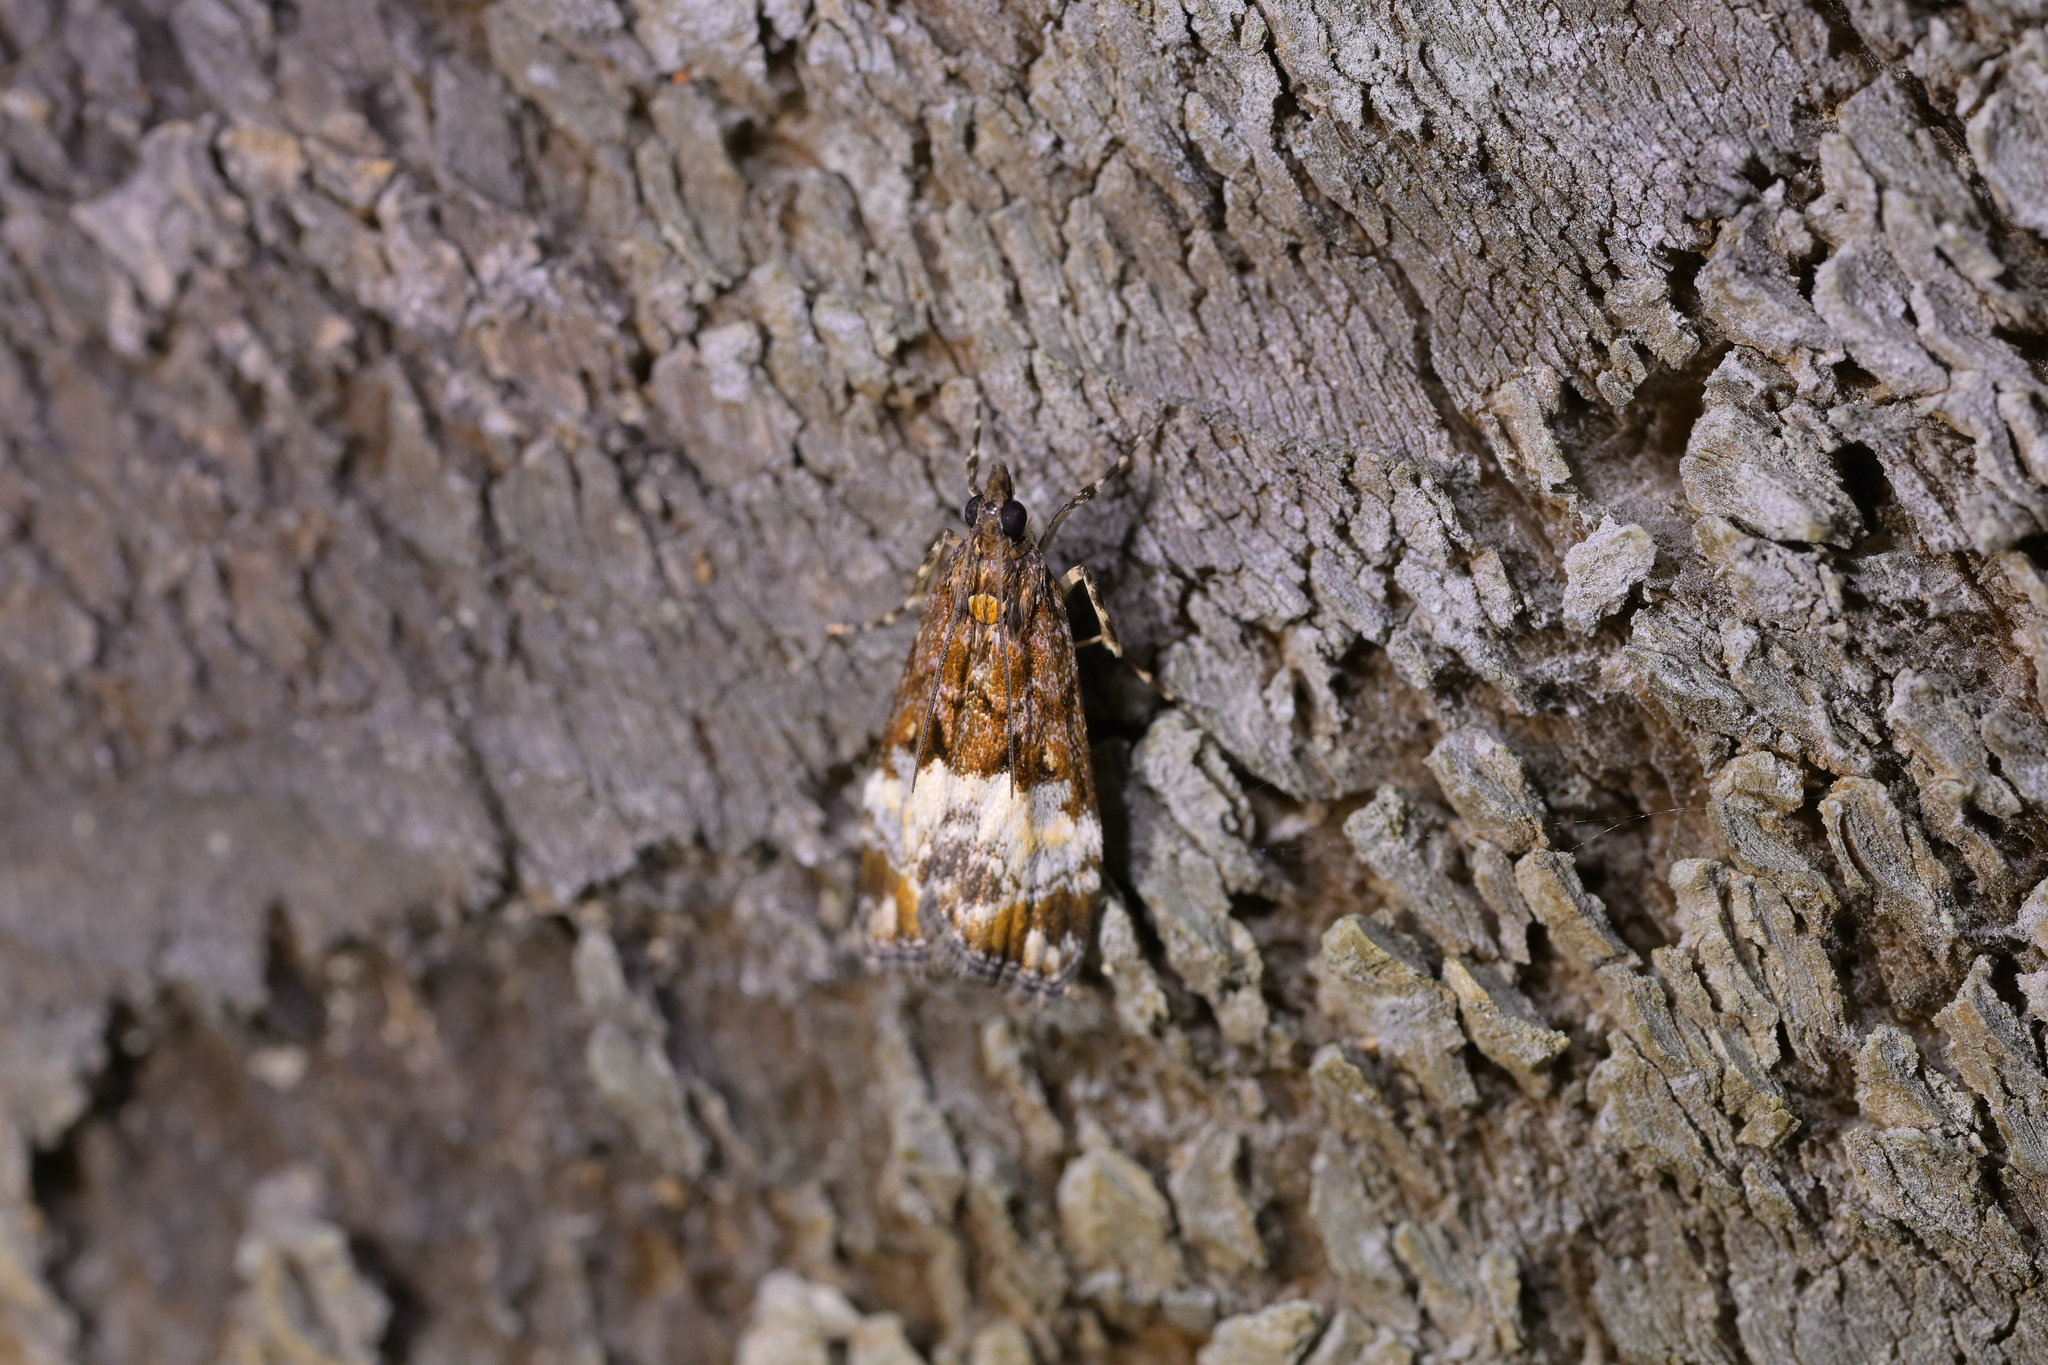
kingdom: Animalia
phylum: Arthropoda
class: Insecta
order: Lepidoptera
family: Crambidae
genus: Scoparia
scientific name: Scoparia minusculalis
